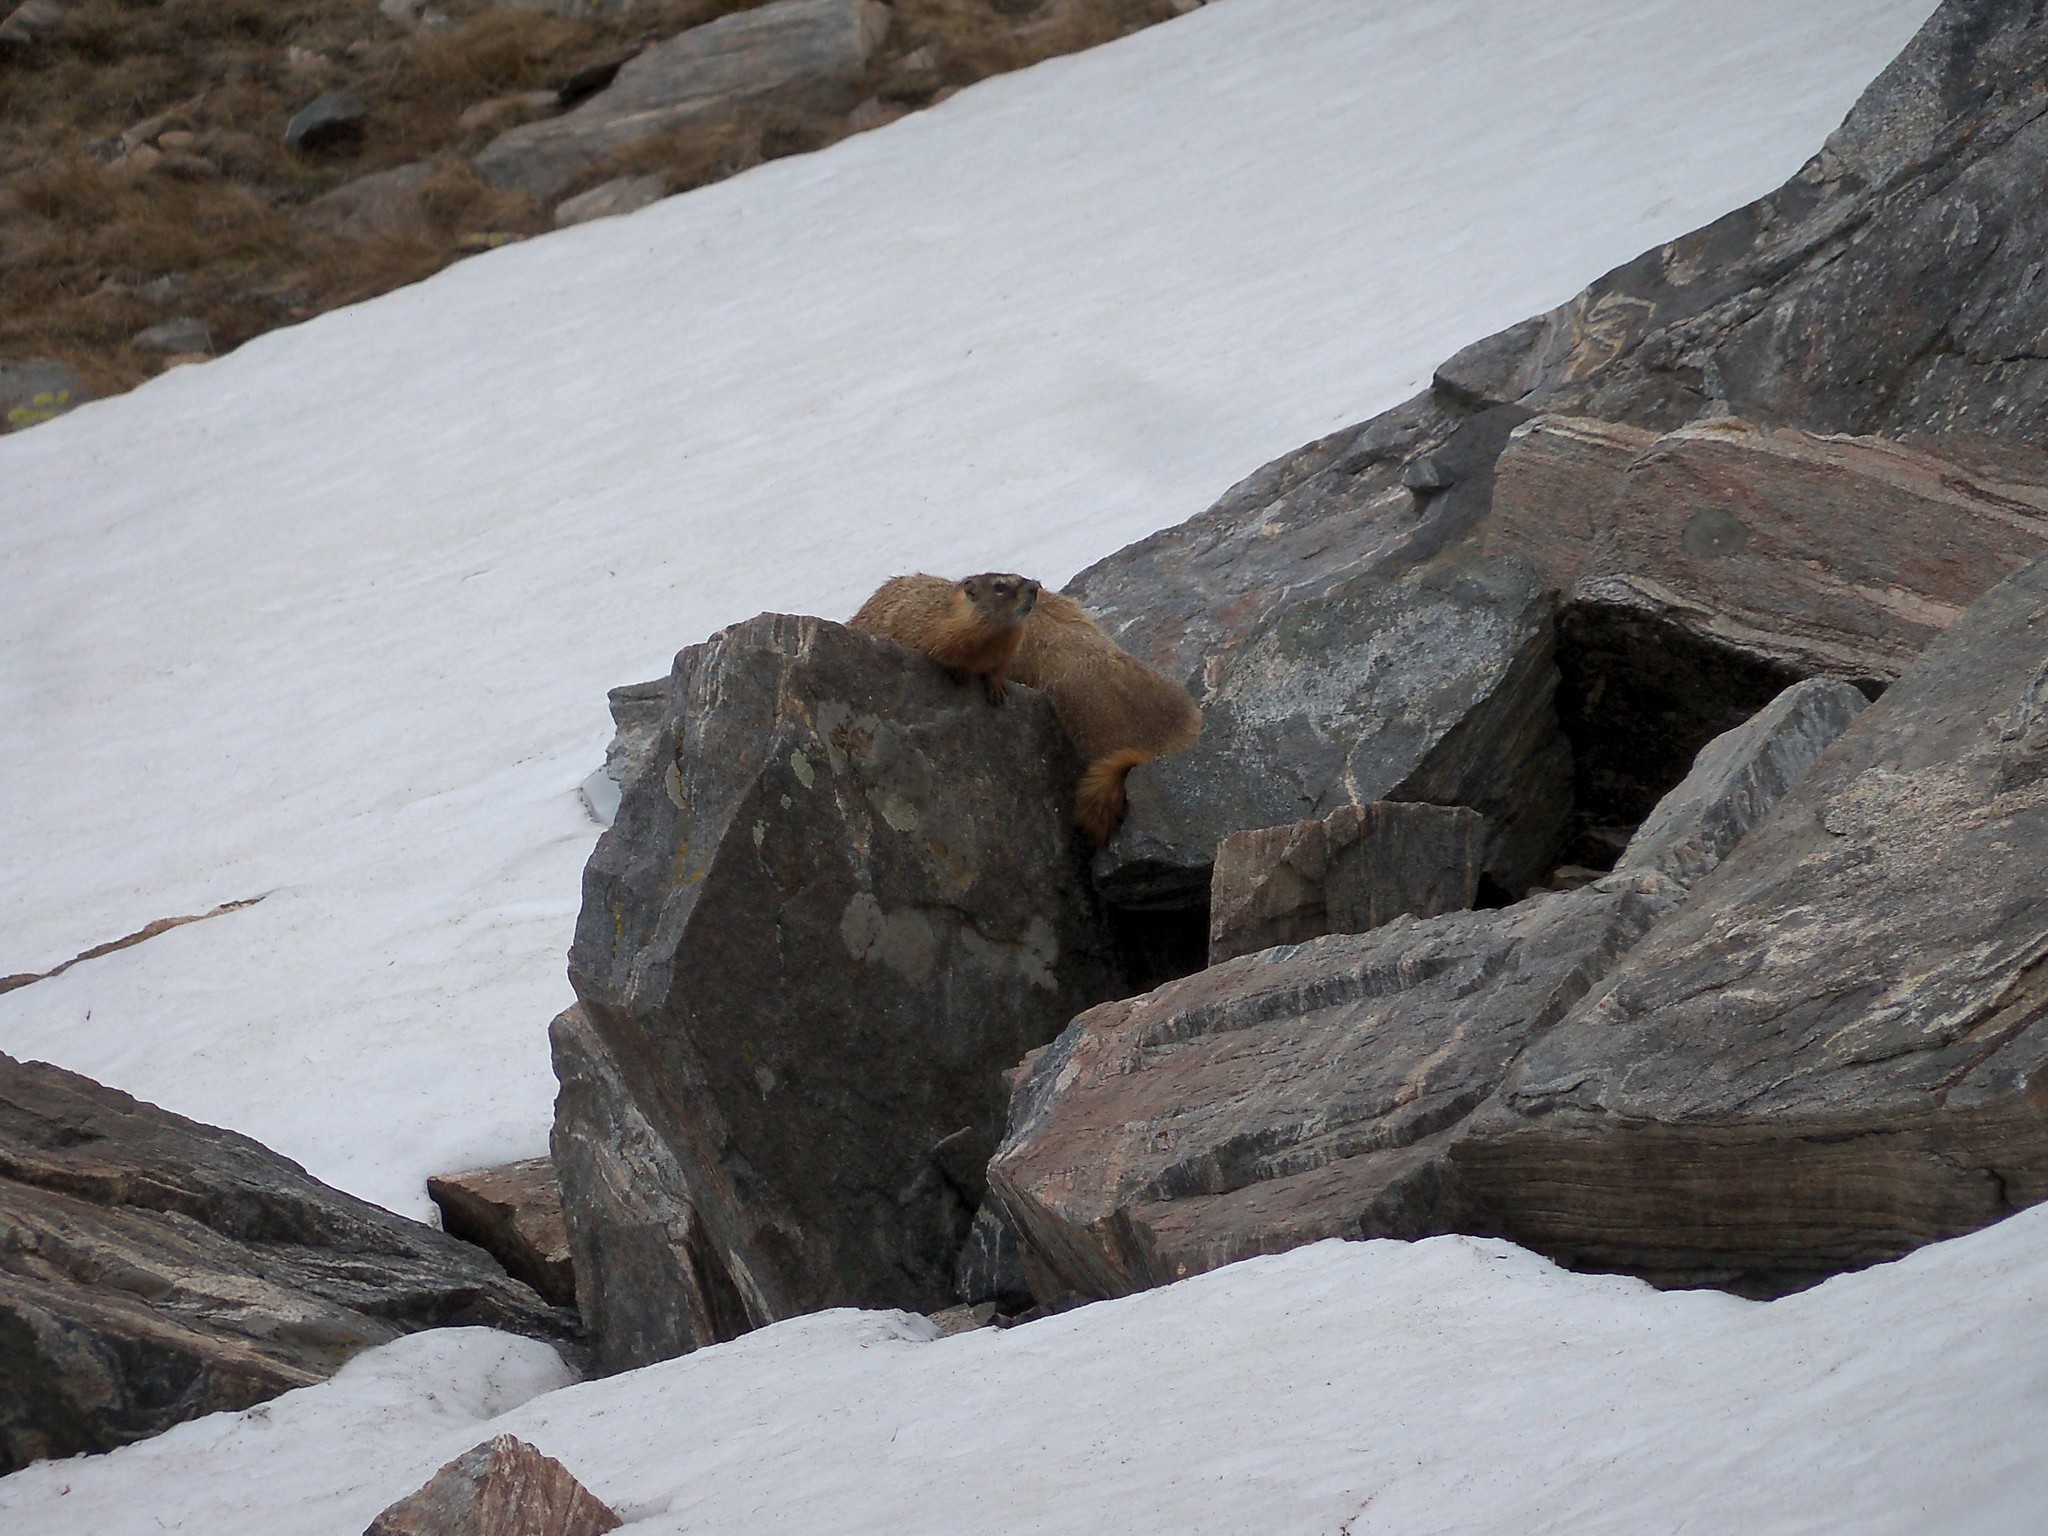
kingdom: Animalia
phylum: Chordata
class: Mammalia
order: Rodentia
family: Sciuridae
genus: Marmota
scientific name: Marmota flaviventris
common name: Yellow-bellied marmot
